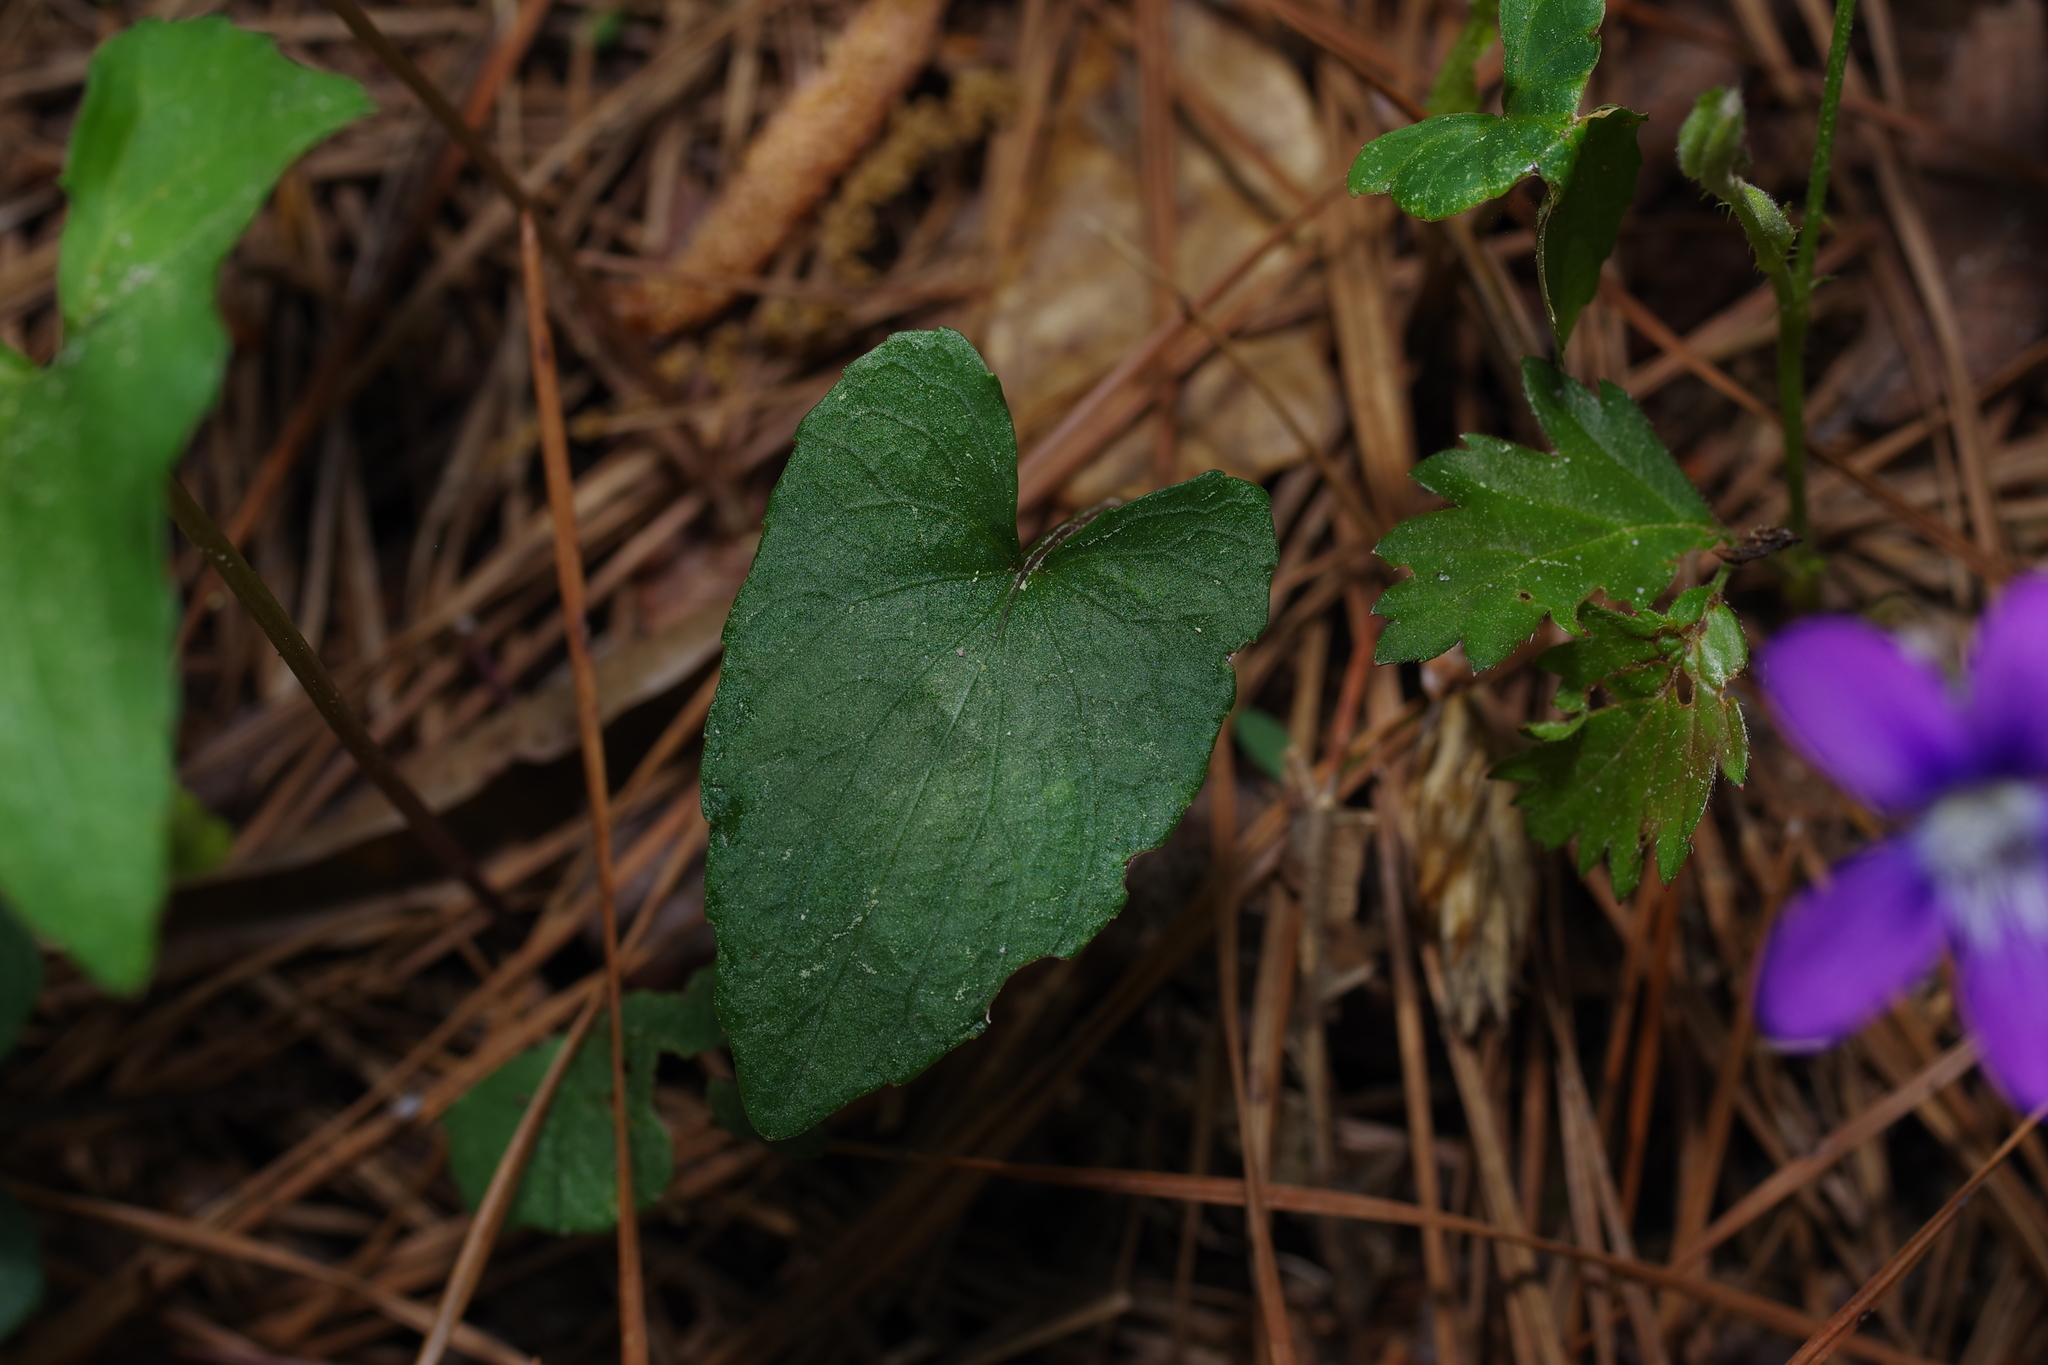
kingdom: Plantae
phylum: Tracheophyta
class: Magnoliopsida
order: Malpighiales
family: Violaceae
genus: Viola
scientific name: Viola sororia
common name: Dooryard violet
